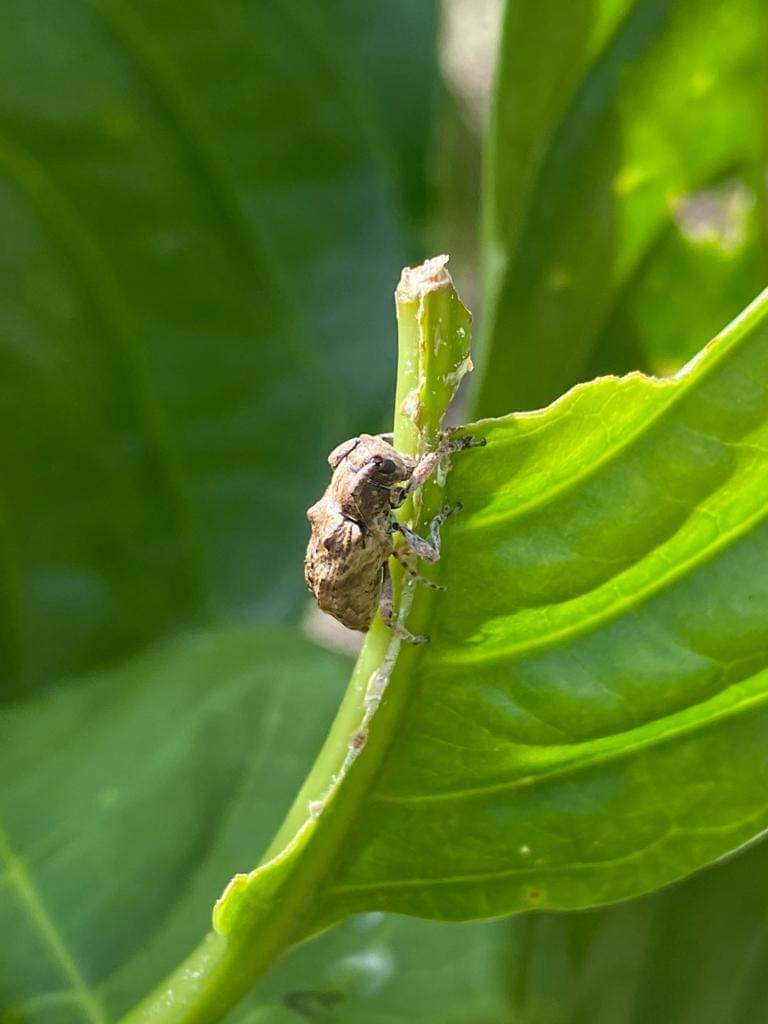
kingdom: Animalia
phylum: Arthropoda
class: Insecta
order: Coleoptera
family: Cerambycidae
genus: Pterolophia
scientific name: Pterolophia bigibbera
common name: Long-horned beetle
